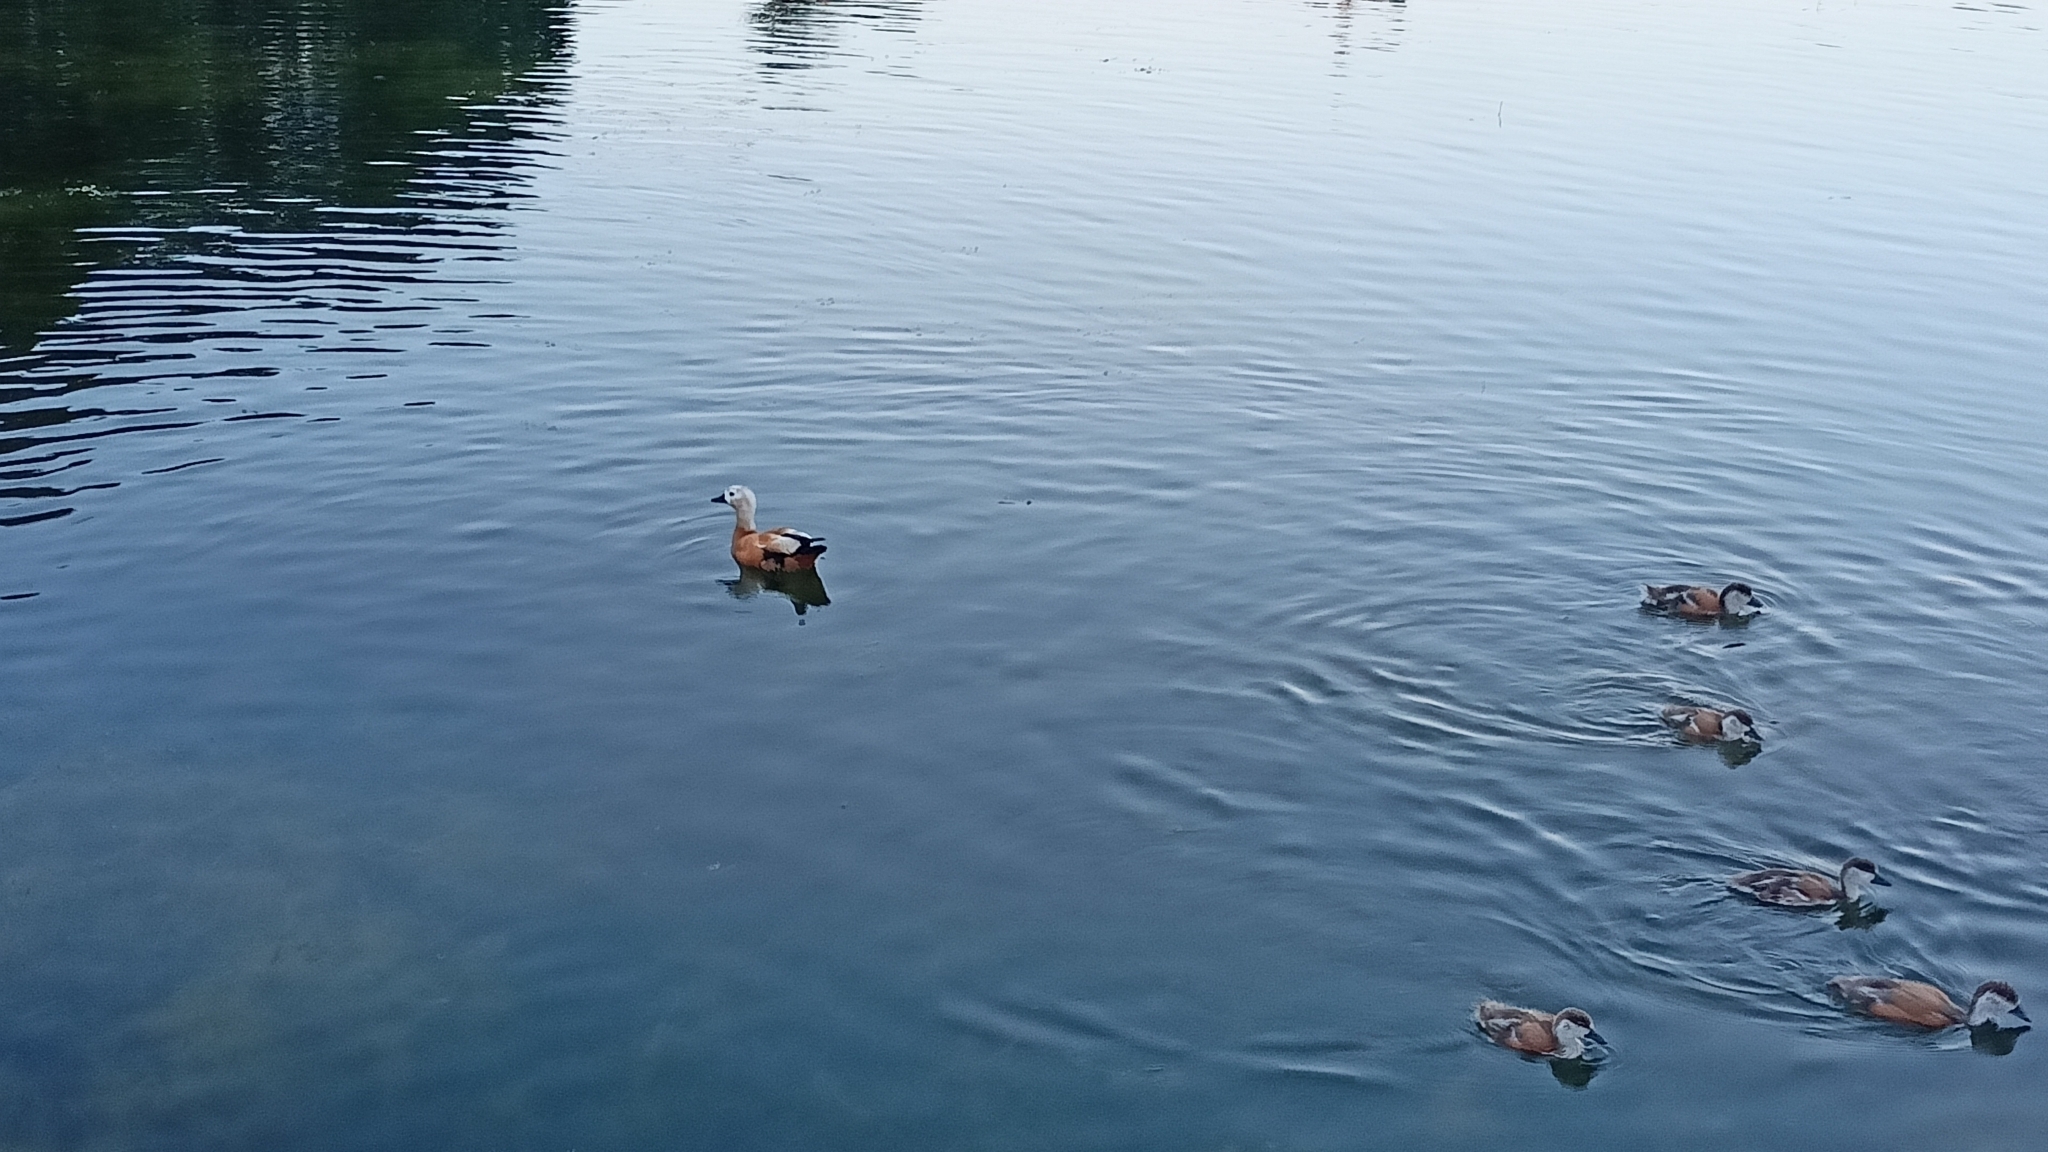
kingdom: Animalia
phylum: Chordata
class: Aves
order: Anseriformes
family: Anatidae
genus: Tadorna
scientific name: Tadorna ferruginea
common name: Ruddy shelduck
